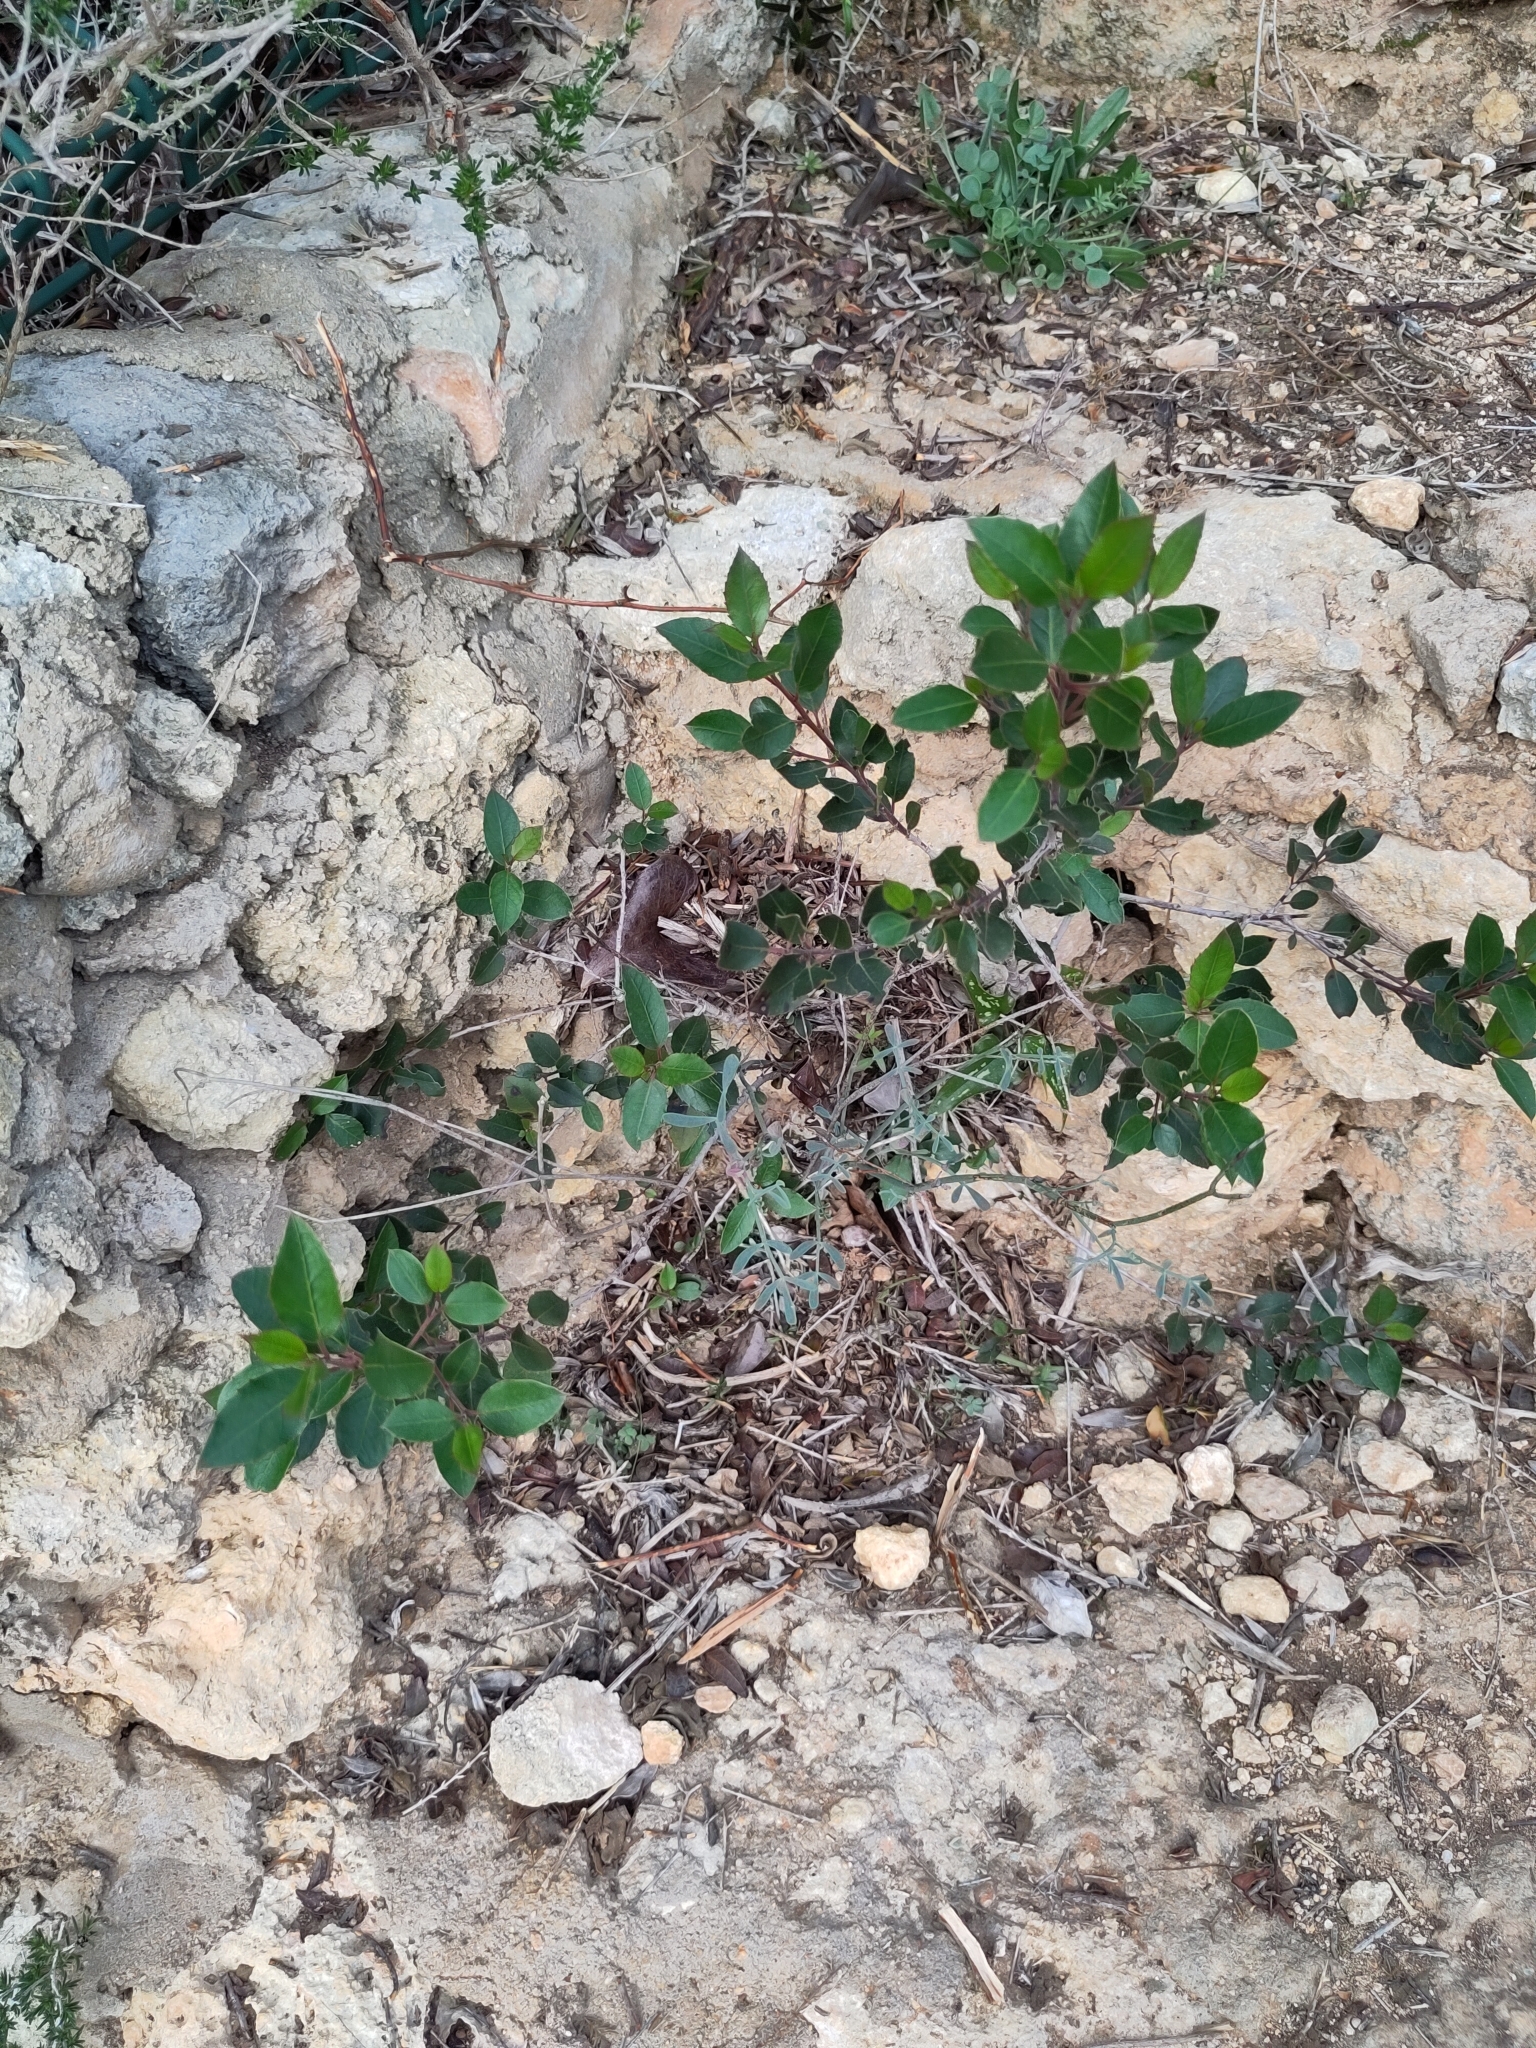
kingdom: Plantae
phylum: Tracheophyta
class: Magnoliopsida
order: Rosales
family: Rhamnaceae
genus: Rhamnus
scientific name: Rhamnus alaternus
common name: Mediterranean buckthorn
